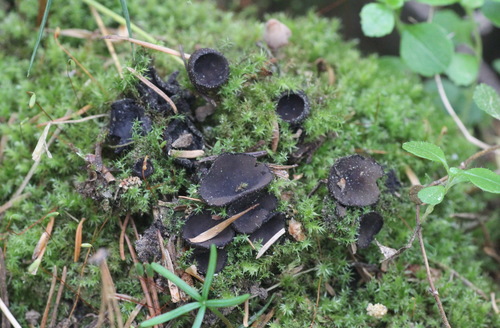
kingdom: Fungi
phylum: Ascomycota
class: Pezizomycetes
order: Pezizales
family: Sarcosomataceae
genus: Pseudoplectania
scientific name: Pseudoplectania nigrella
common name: Ebony cup
